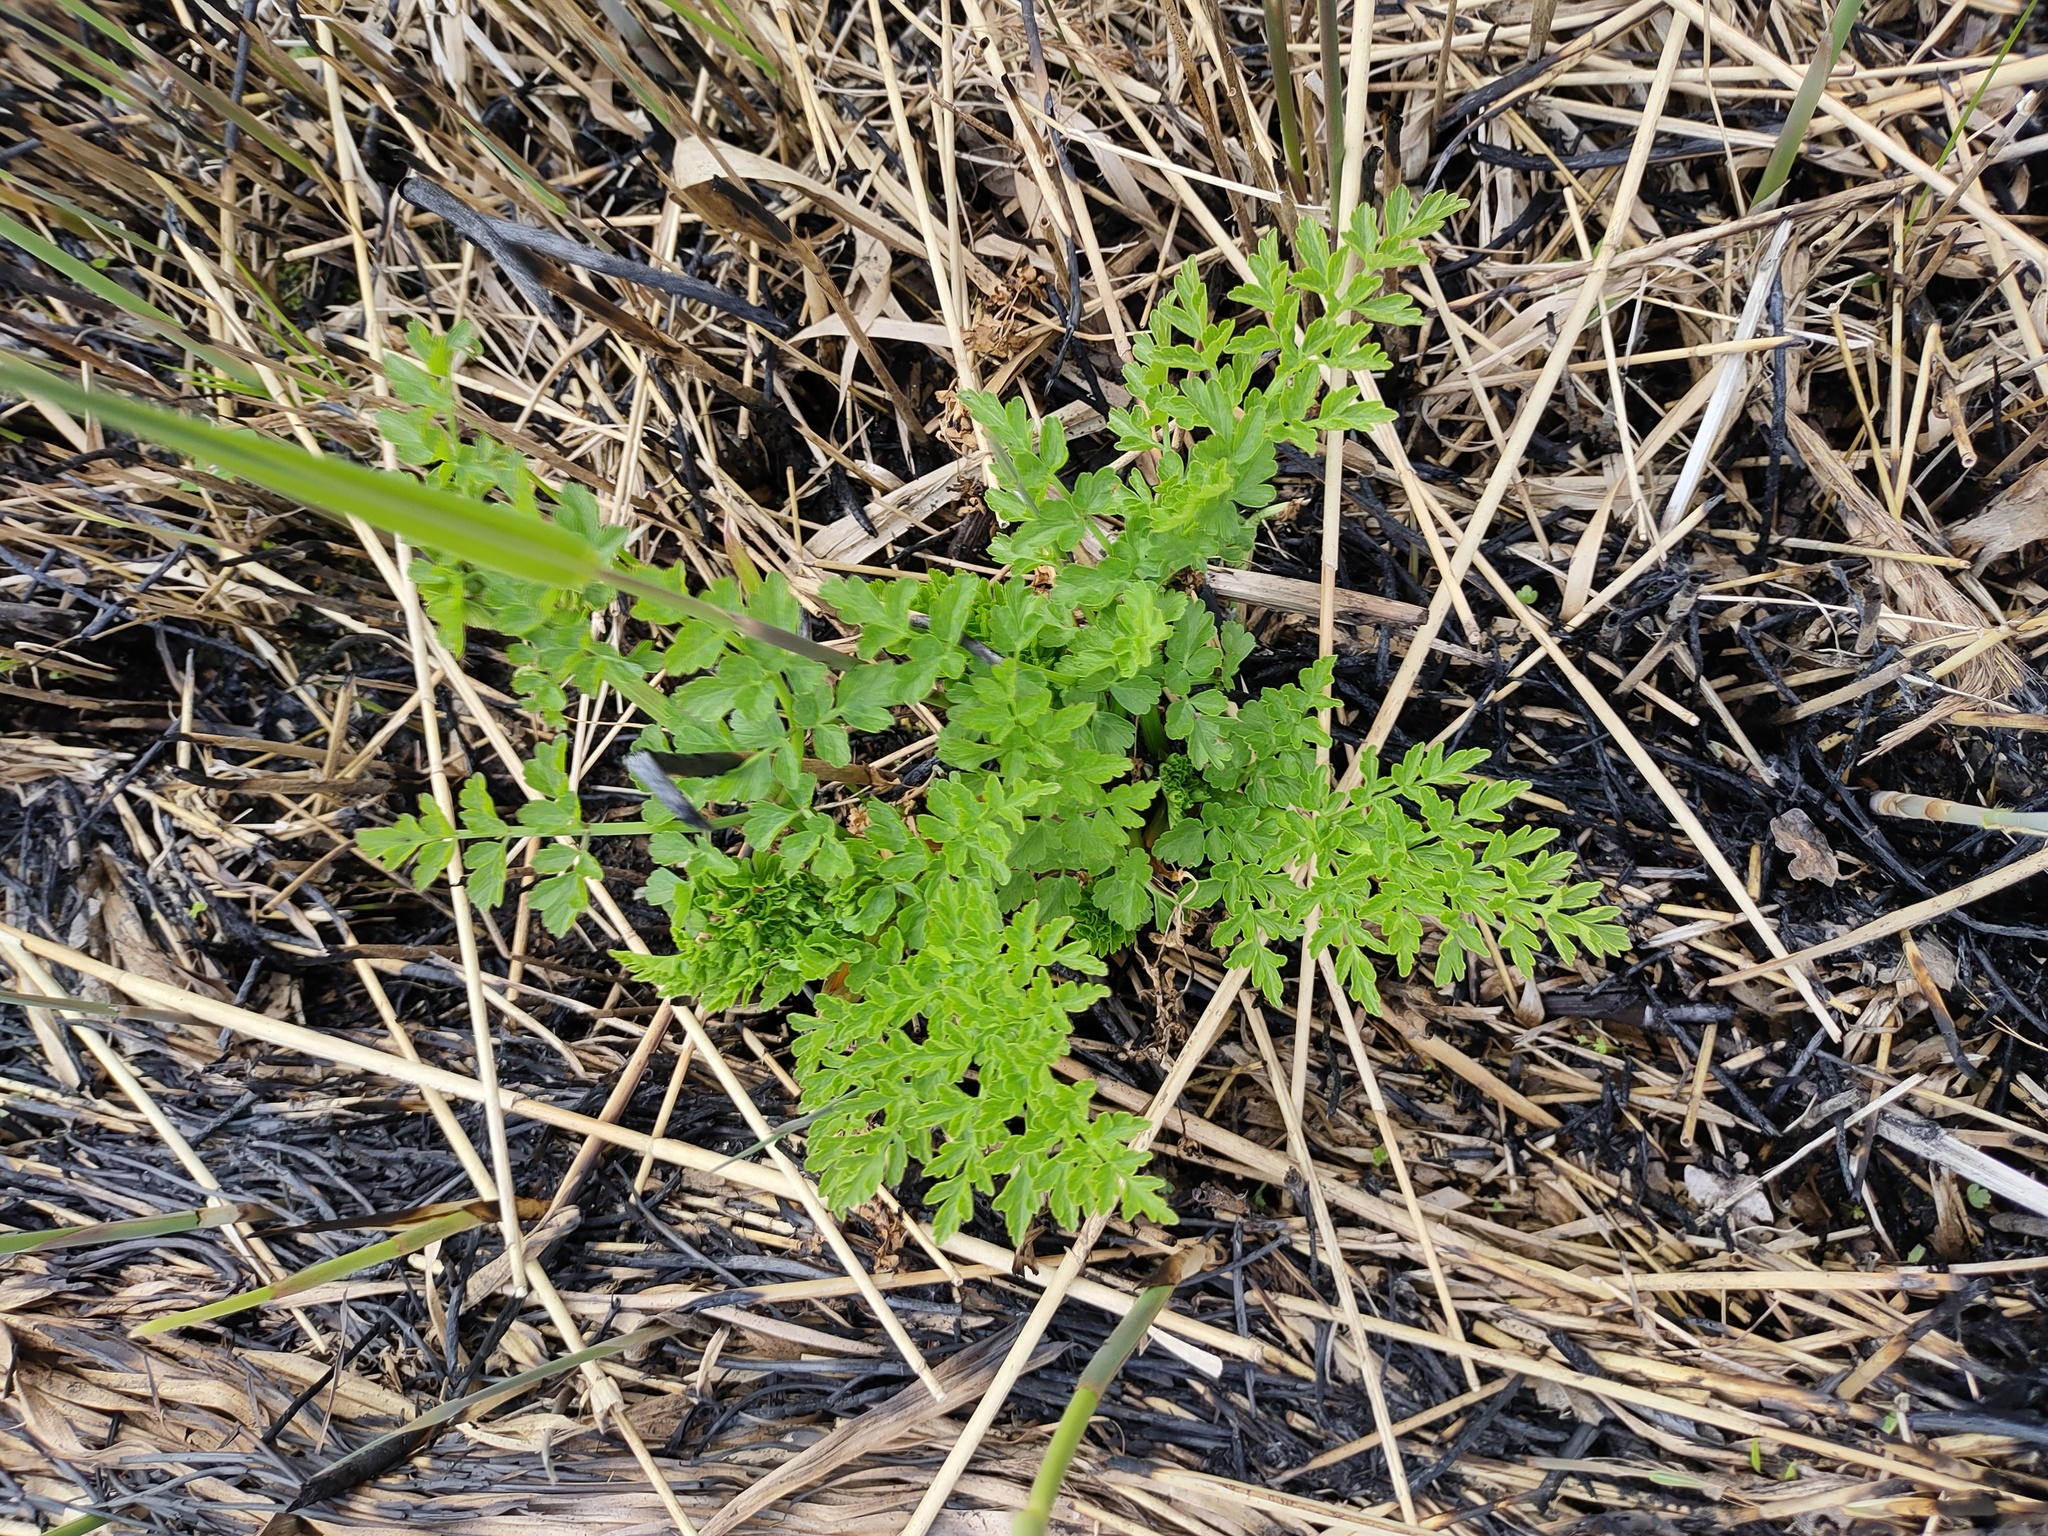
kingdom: Plantae
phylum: Tracheophyta
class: Magnoliopsida
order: Apiales
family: Apiaceae
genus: Oenanthe
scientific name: Oenanthe crocata
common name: Hemlock water-dropwort
